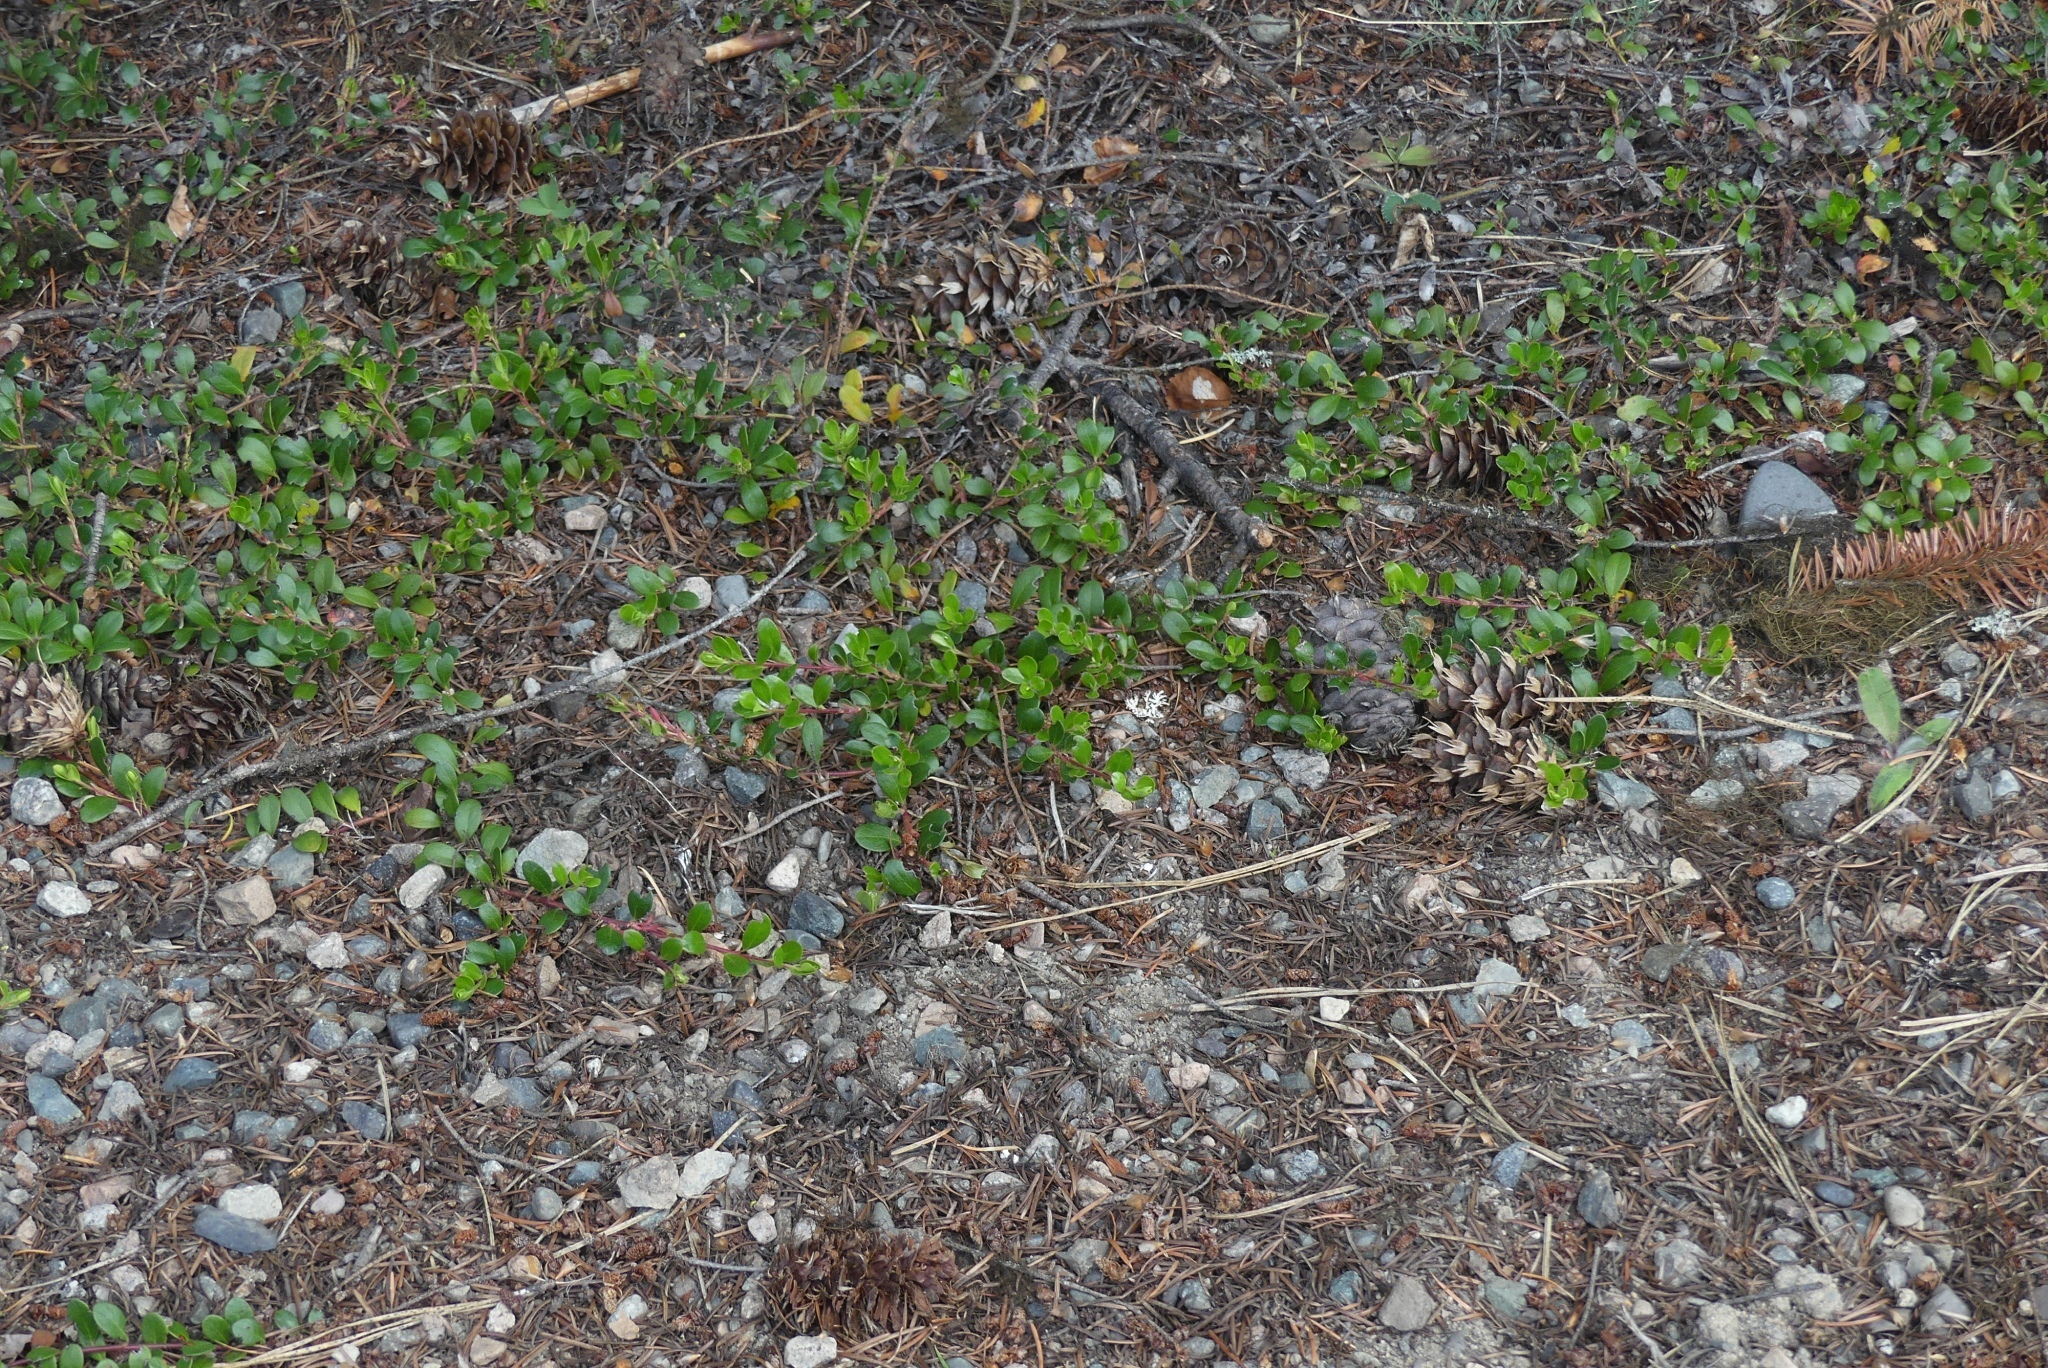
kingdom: Plantae
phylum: Tracheophyta
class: Magnoliopsida
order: Ericales
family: Ericaceae
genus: Arctostaphylos
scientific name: Arctostaphylos uva-ursi
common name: Bearberry
